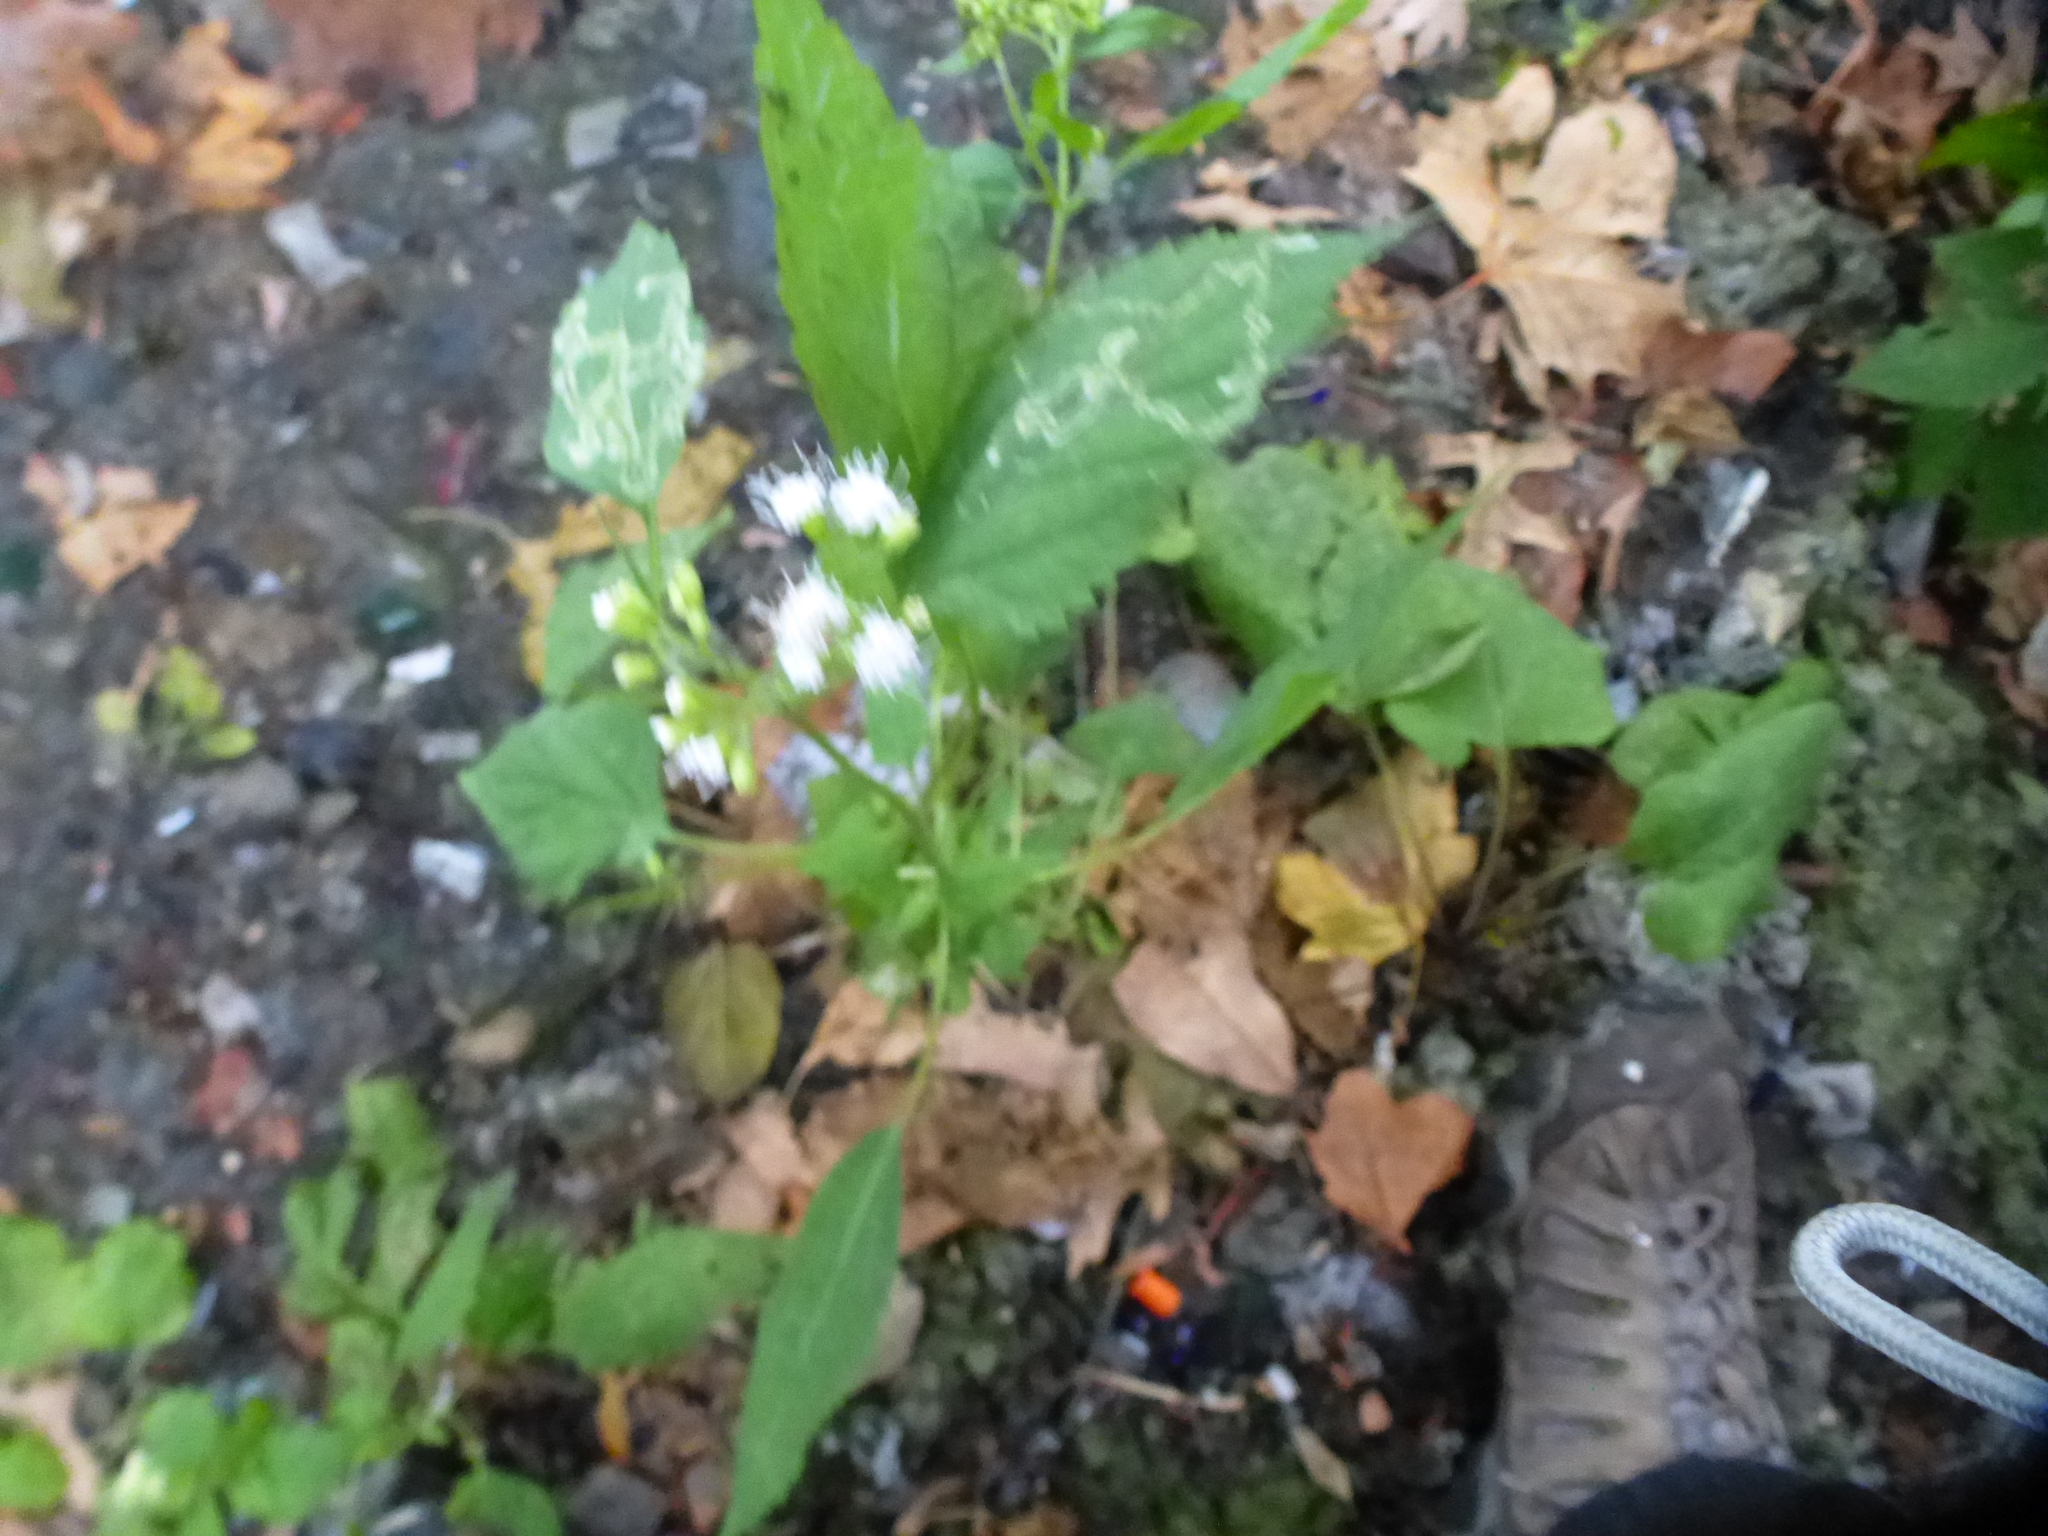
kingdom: Plantae
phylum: Tracheophyta
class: Magnoliopsida
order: Asterales
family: Asteraceae
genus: Ageratina
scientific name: Ageratina altissima
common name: White snakeroot
